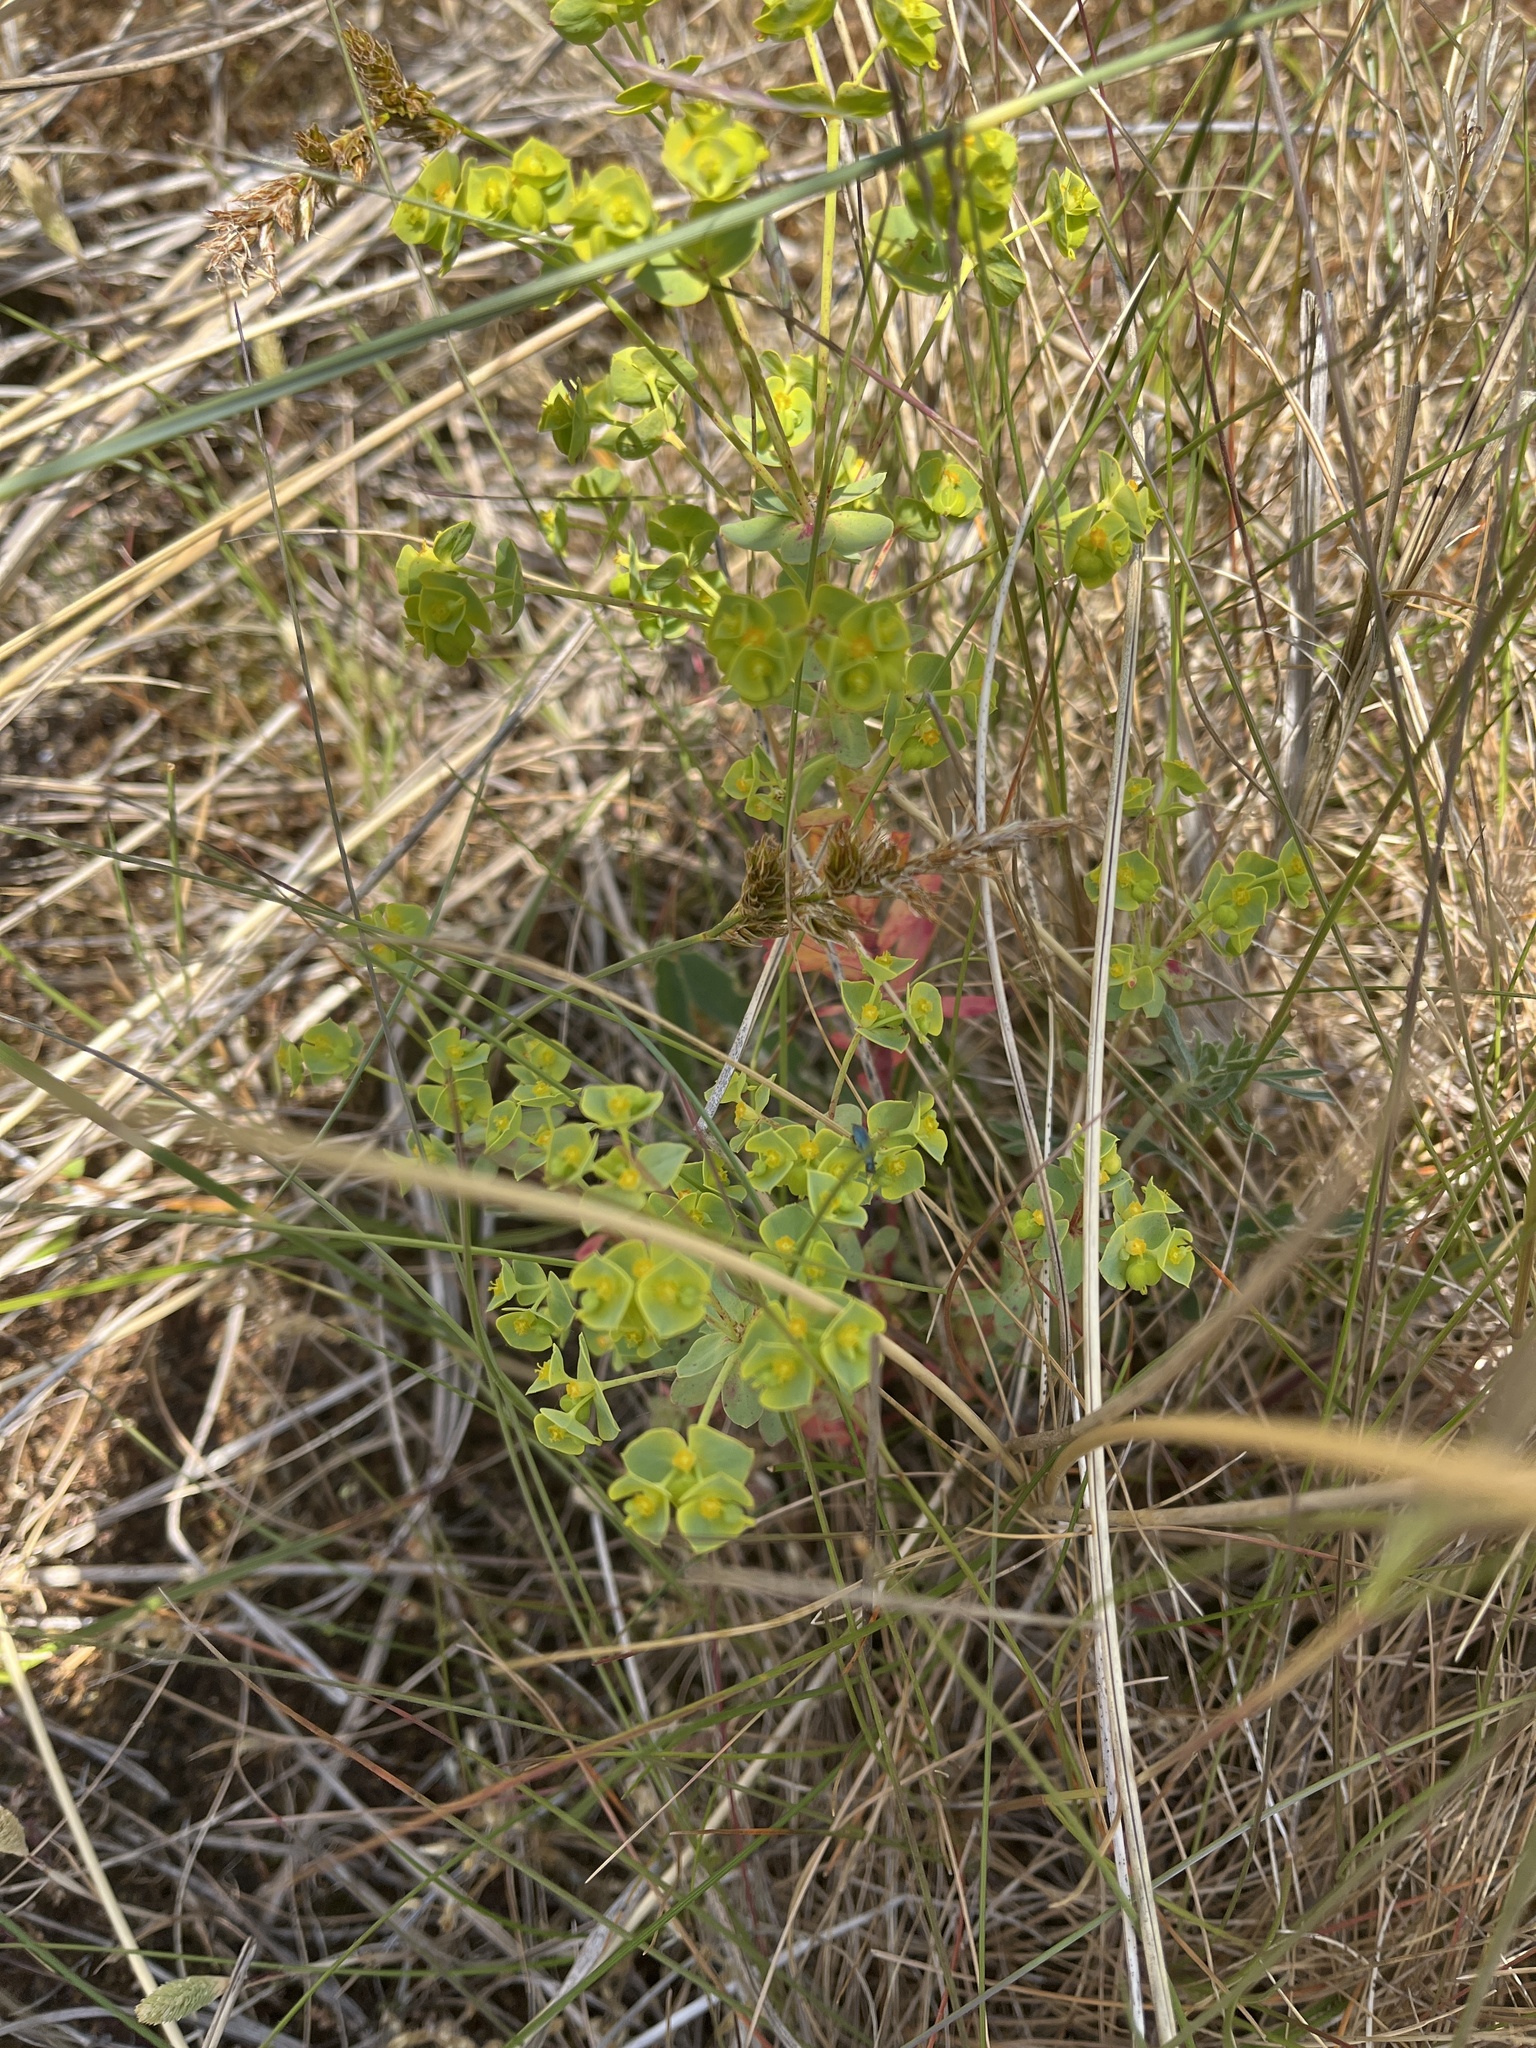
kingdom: Plantae
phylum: Tracheophyta
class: Magnoliopsida
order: Malpighiales
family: Euphorbiaceae
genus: Euphorbia
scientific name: Euphorbia portlandica
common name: Portland spurge
